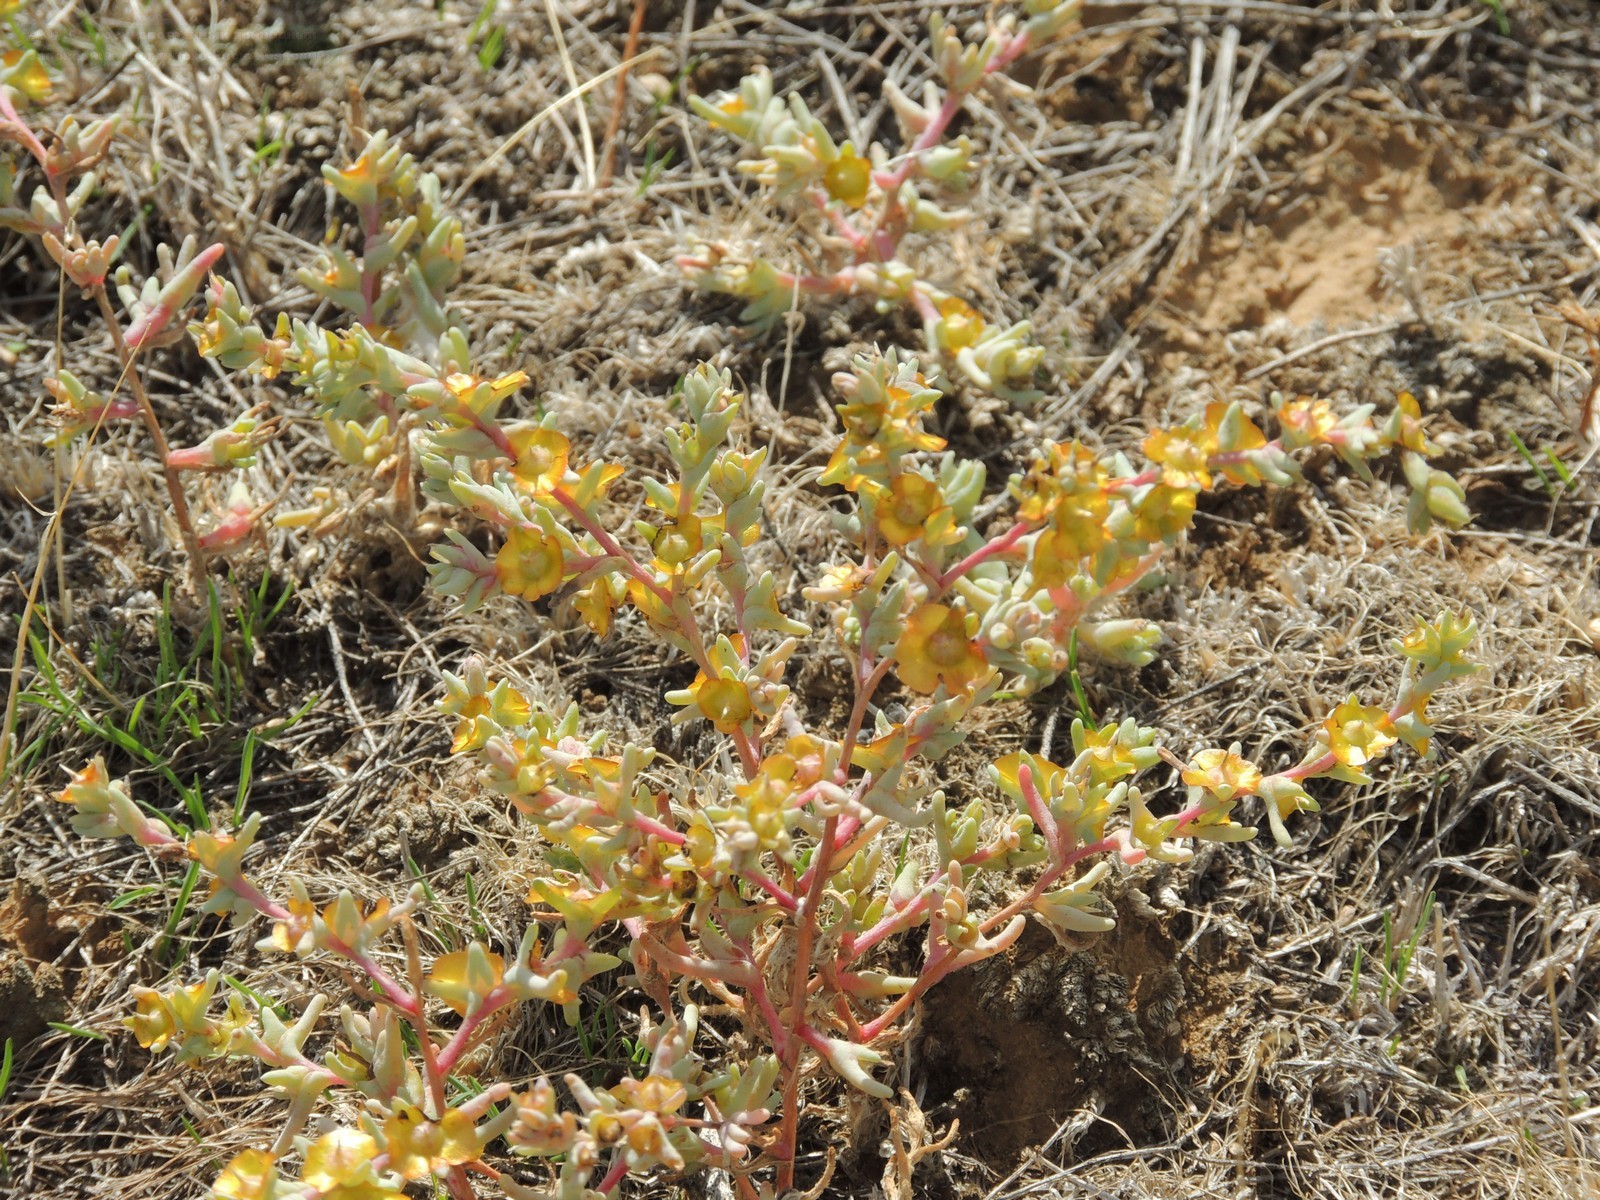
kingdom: Plantae
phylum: Tracheophyta
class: Magnoliopsida
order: Caryophyllales
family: Amaranthaceae
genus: Climacoptera
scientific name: Climacoptera crassa
